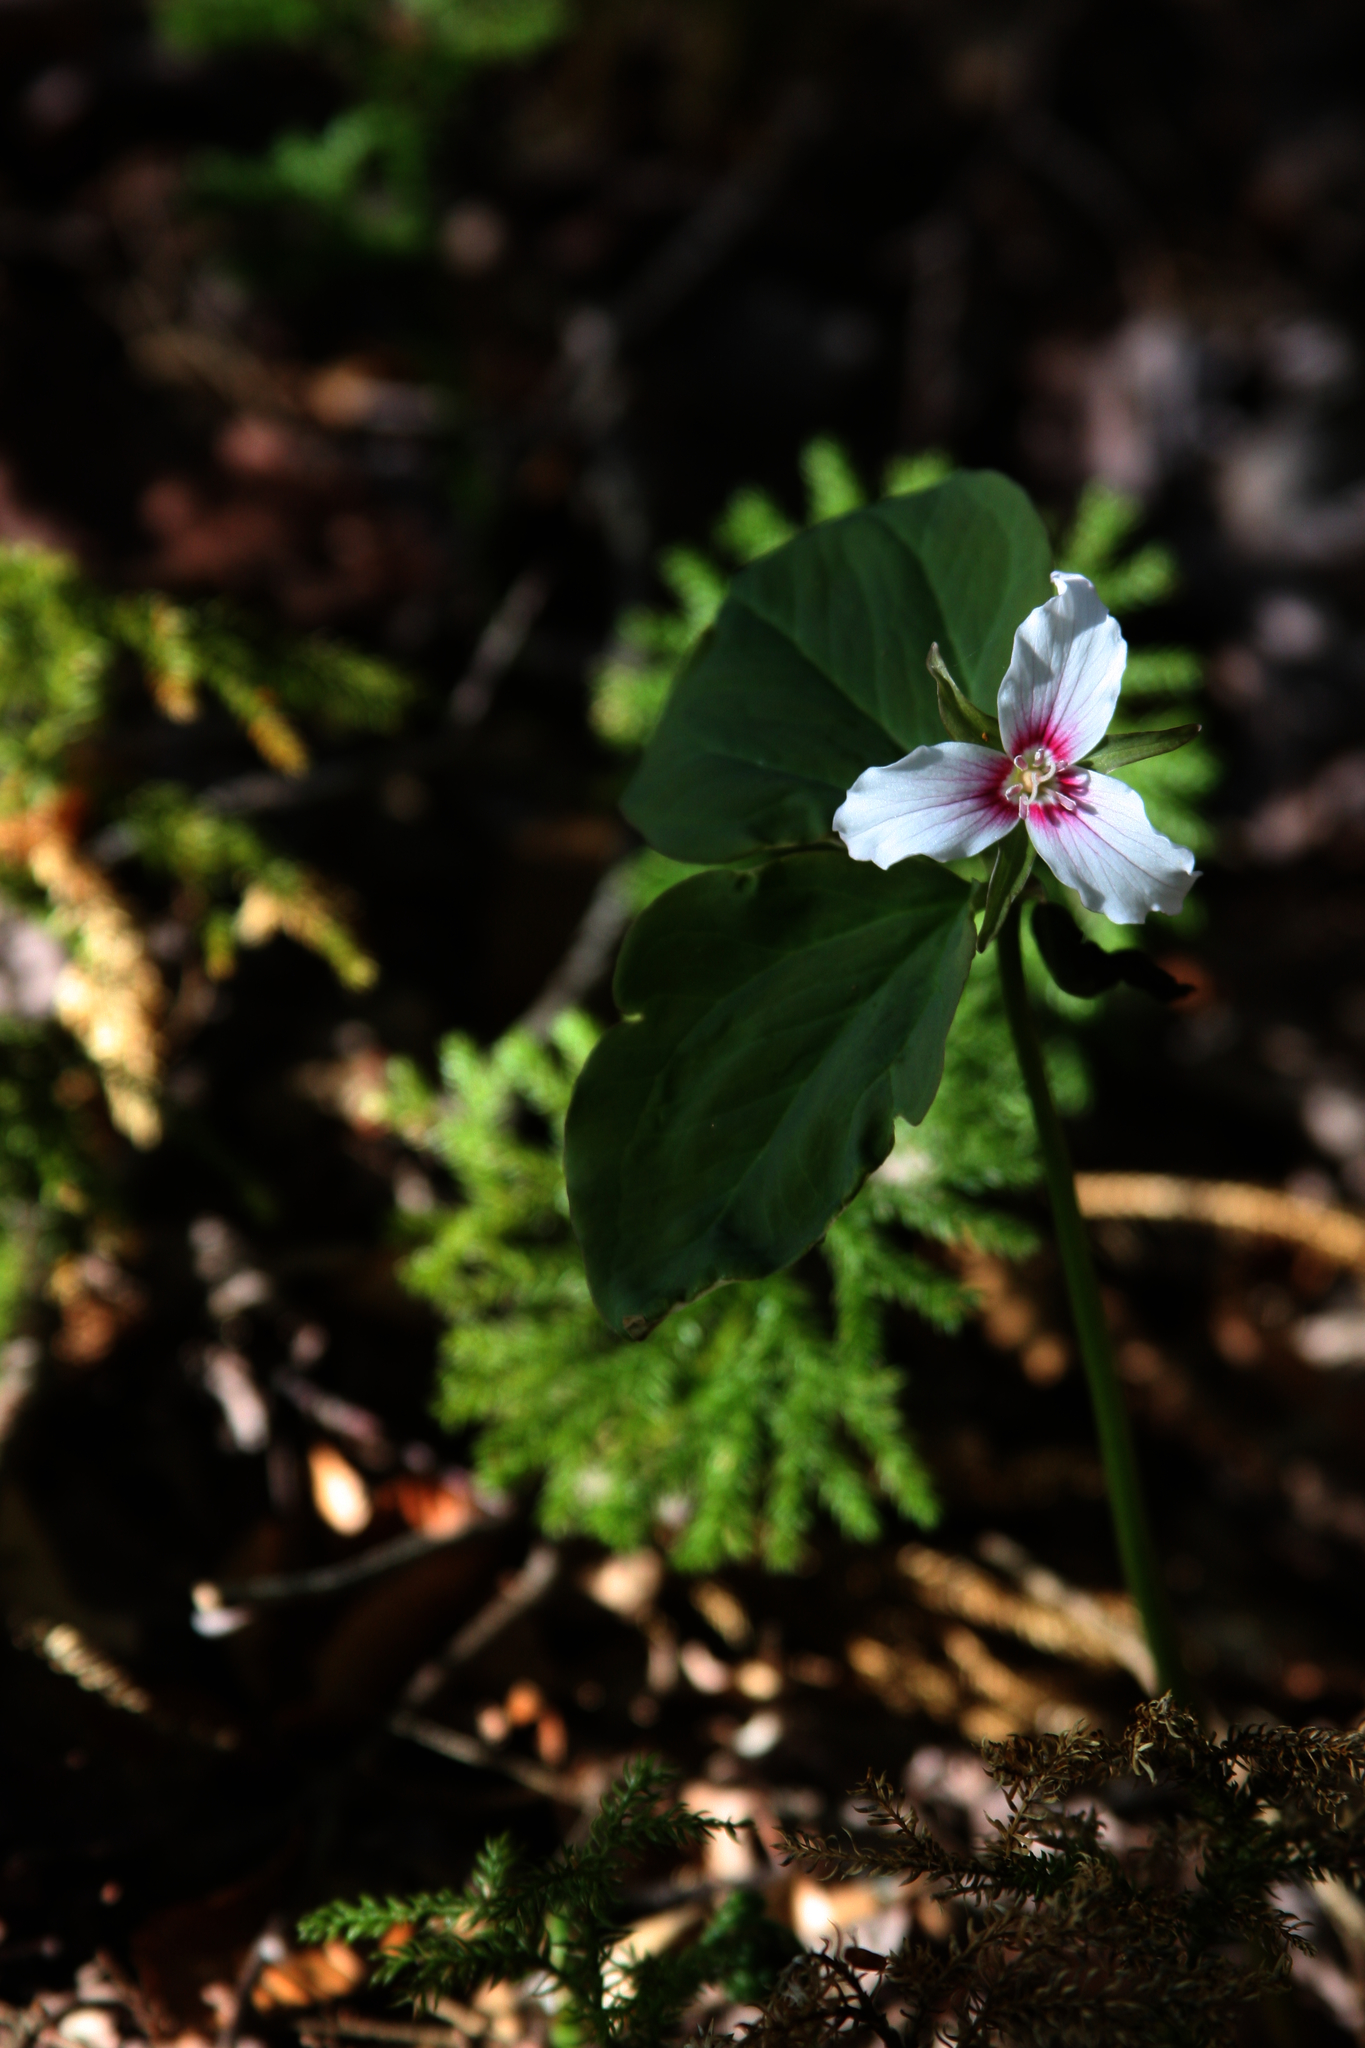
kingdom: Plantae
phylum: Tracheophyta
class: Liliopsida
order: Liliales
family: Melanthiaceae
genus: Trillium
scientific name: Trillium undulatum
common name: Paint trillium
